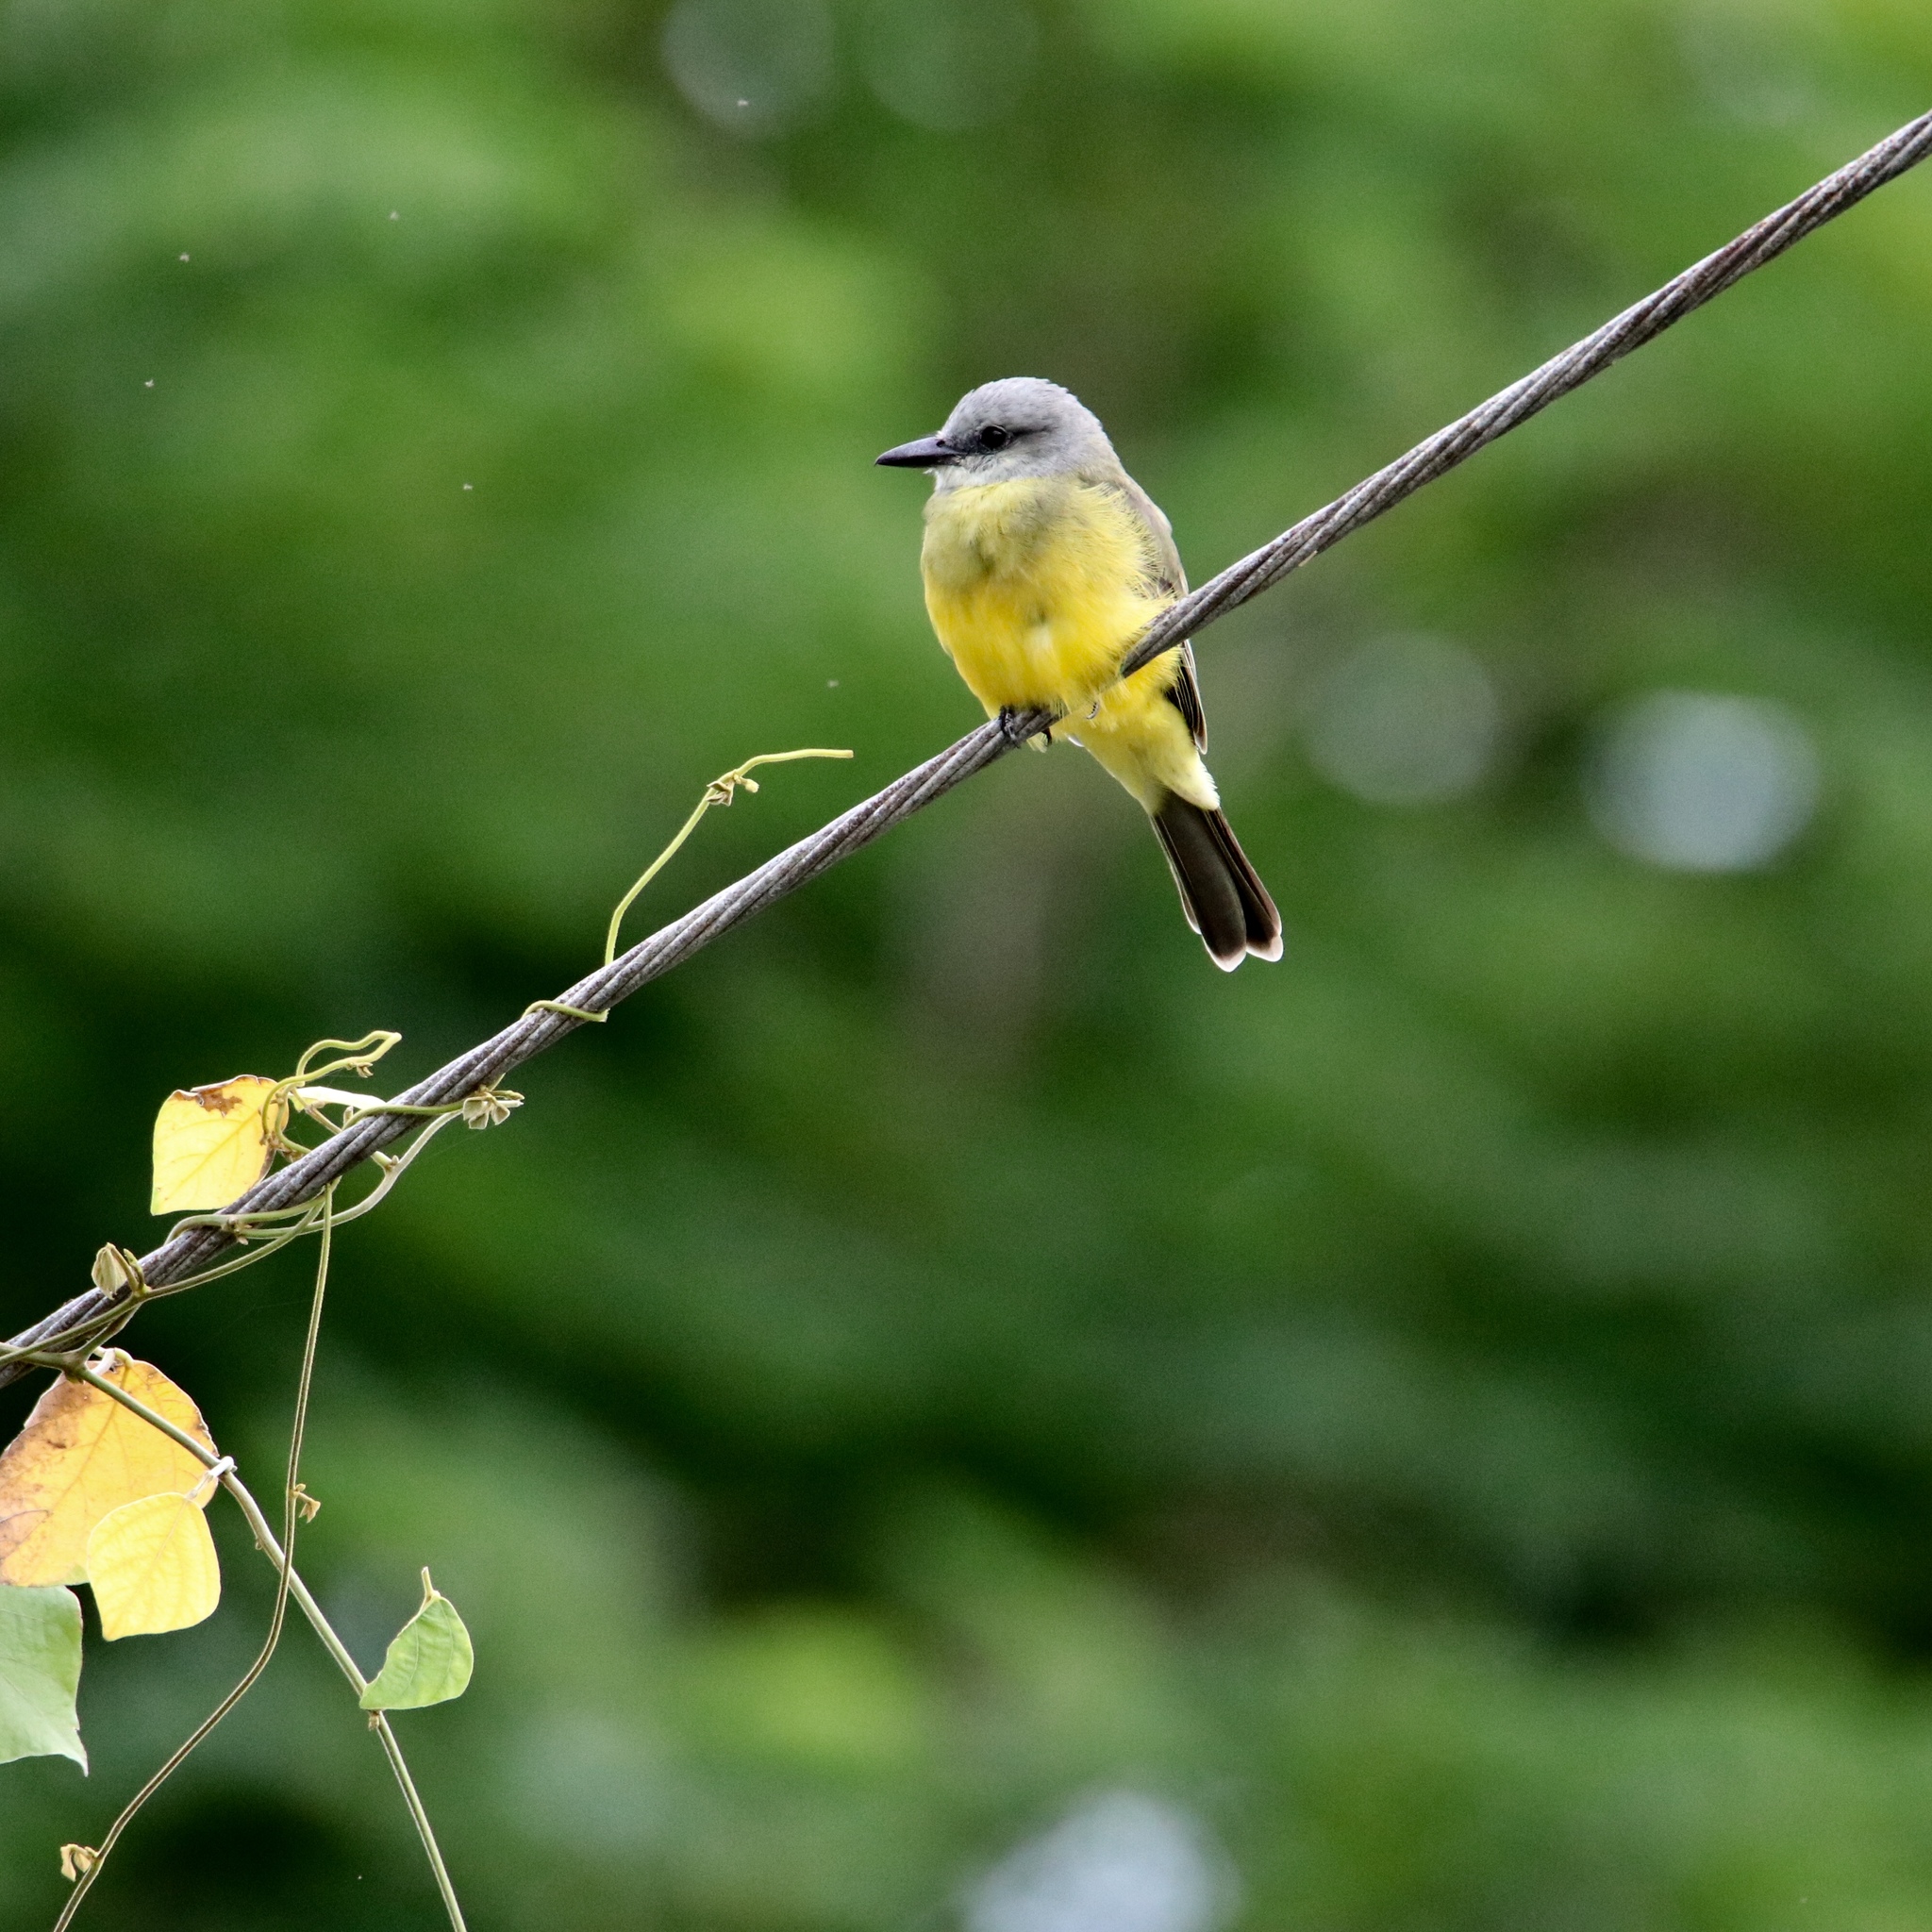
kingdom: Animalia
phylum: Chordata
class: Aves
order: Passeriformes
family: Tyrannidae
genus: Tyrannus
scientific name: Tyrannus melancholicus
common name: Tropical kingbird
